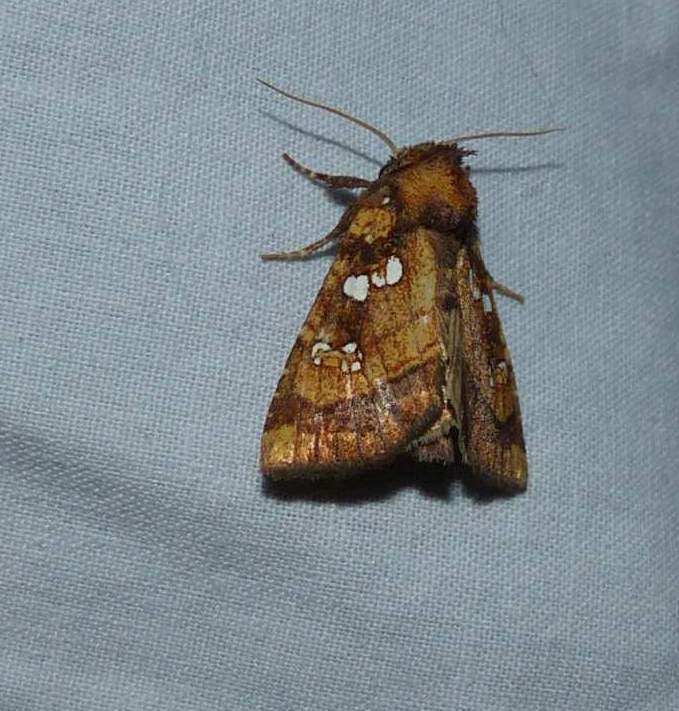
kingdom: Animalia
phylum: Arthropoda
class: Insecta
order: Lepidoptera
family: Noctuidae
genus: Papaipema
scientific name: Papaipema arctivorens
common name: Northern burdock borer moth
